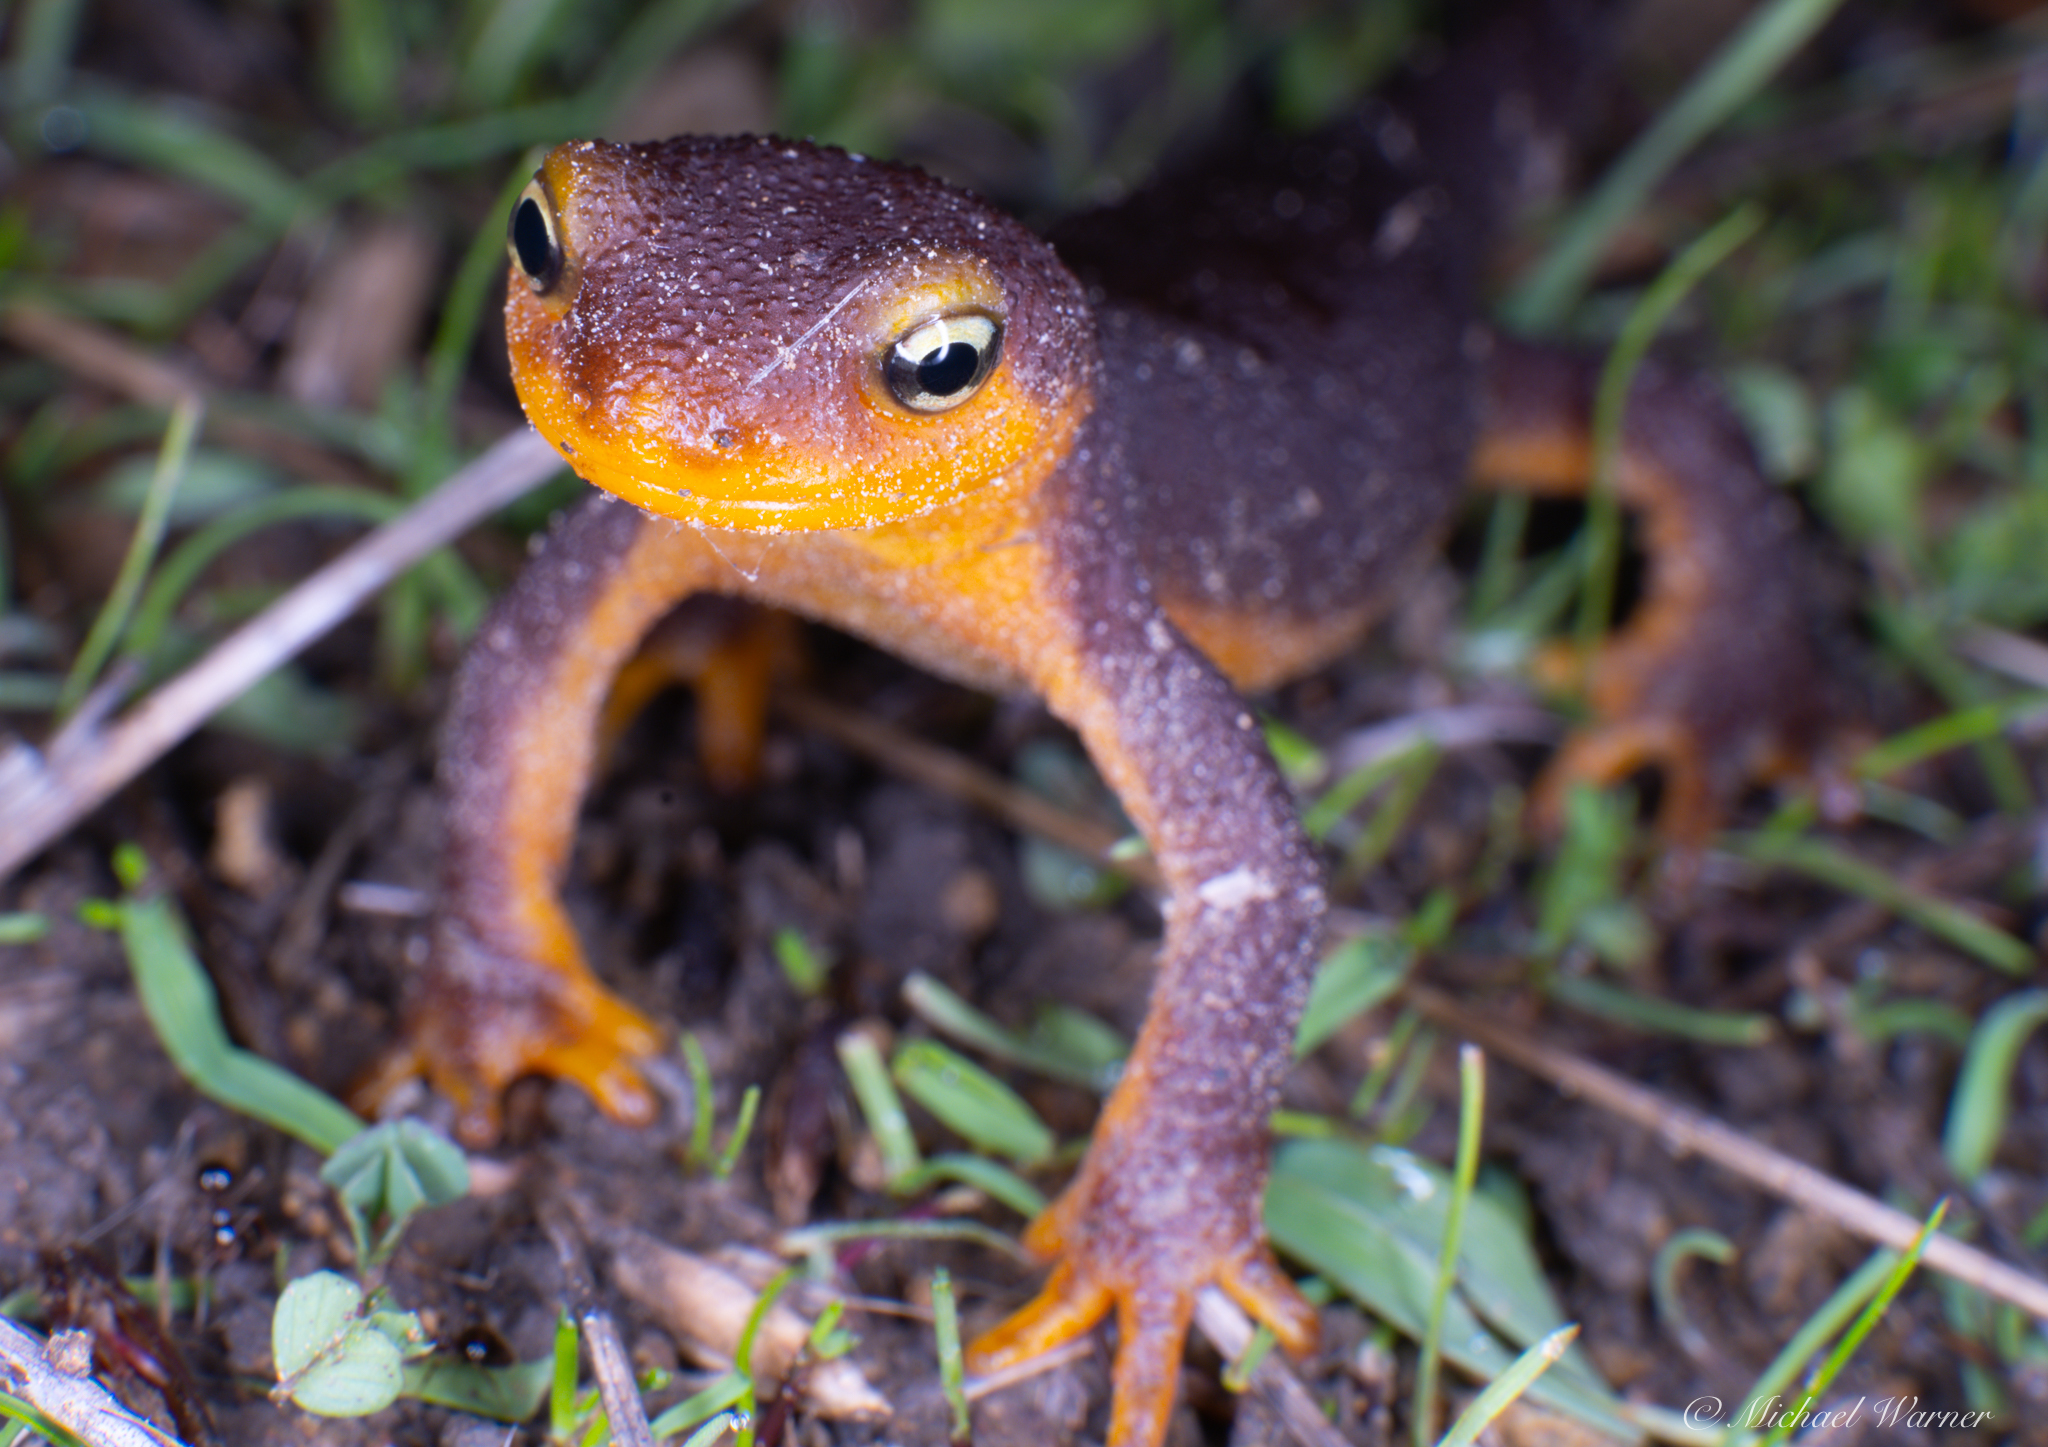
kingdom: Animalia
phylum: Chordata
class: Amphibia
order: Caudata
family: Salamandridae
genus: Taricha
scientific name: Taricha torosa
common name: California newt
